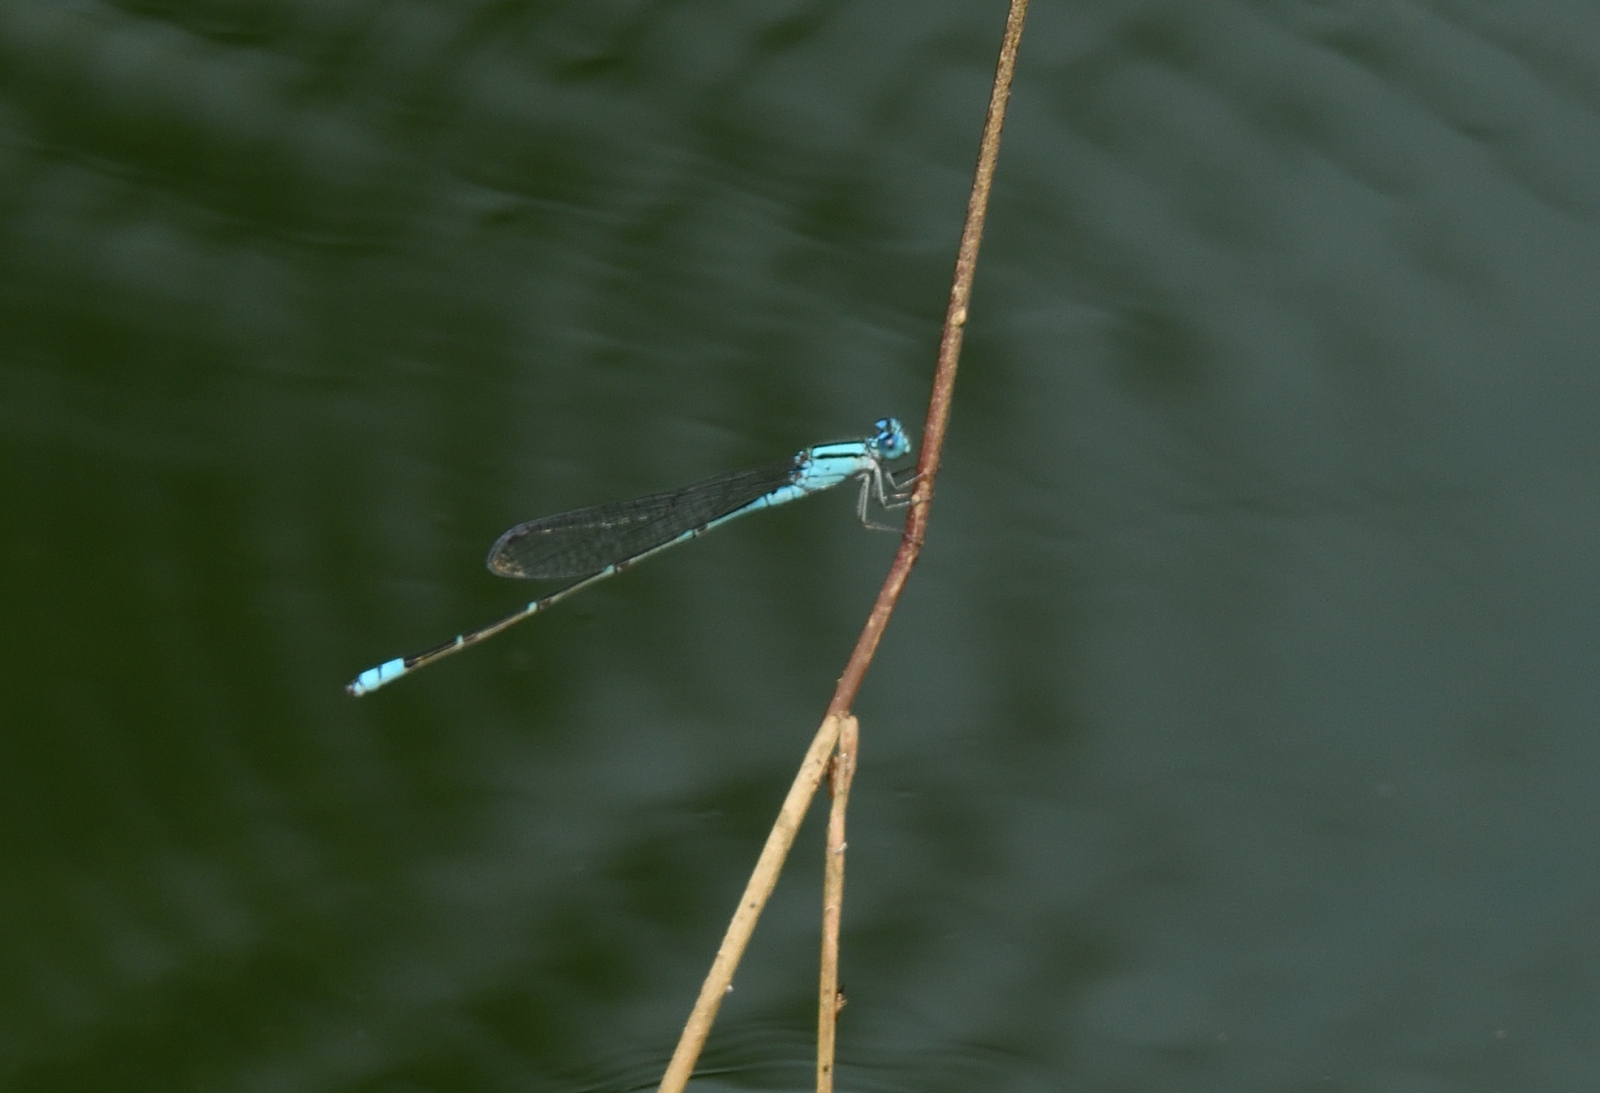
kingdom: Animalia
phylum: Arthropoda
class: Insecta
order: Odonata
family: Coenagrionidae
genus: Pseudagrion
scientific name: Pseudagrion microcephalum
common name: Blue riverdamsel
